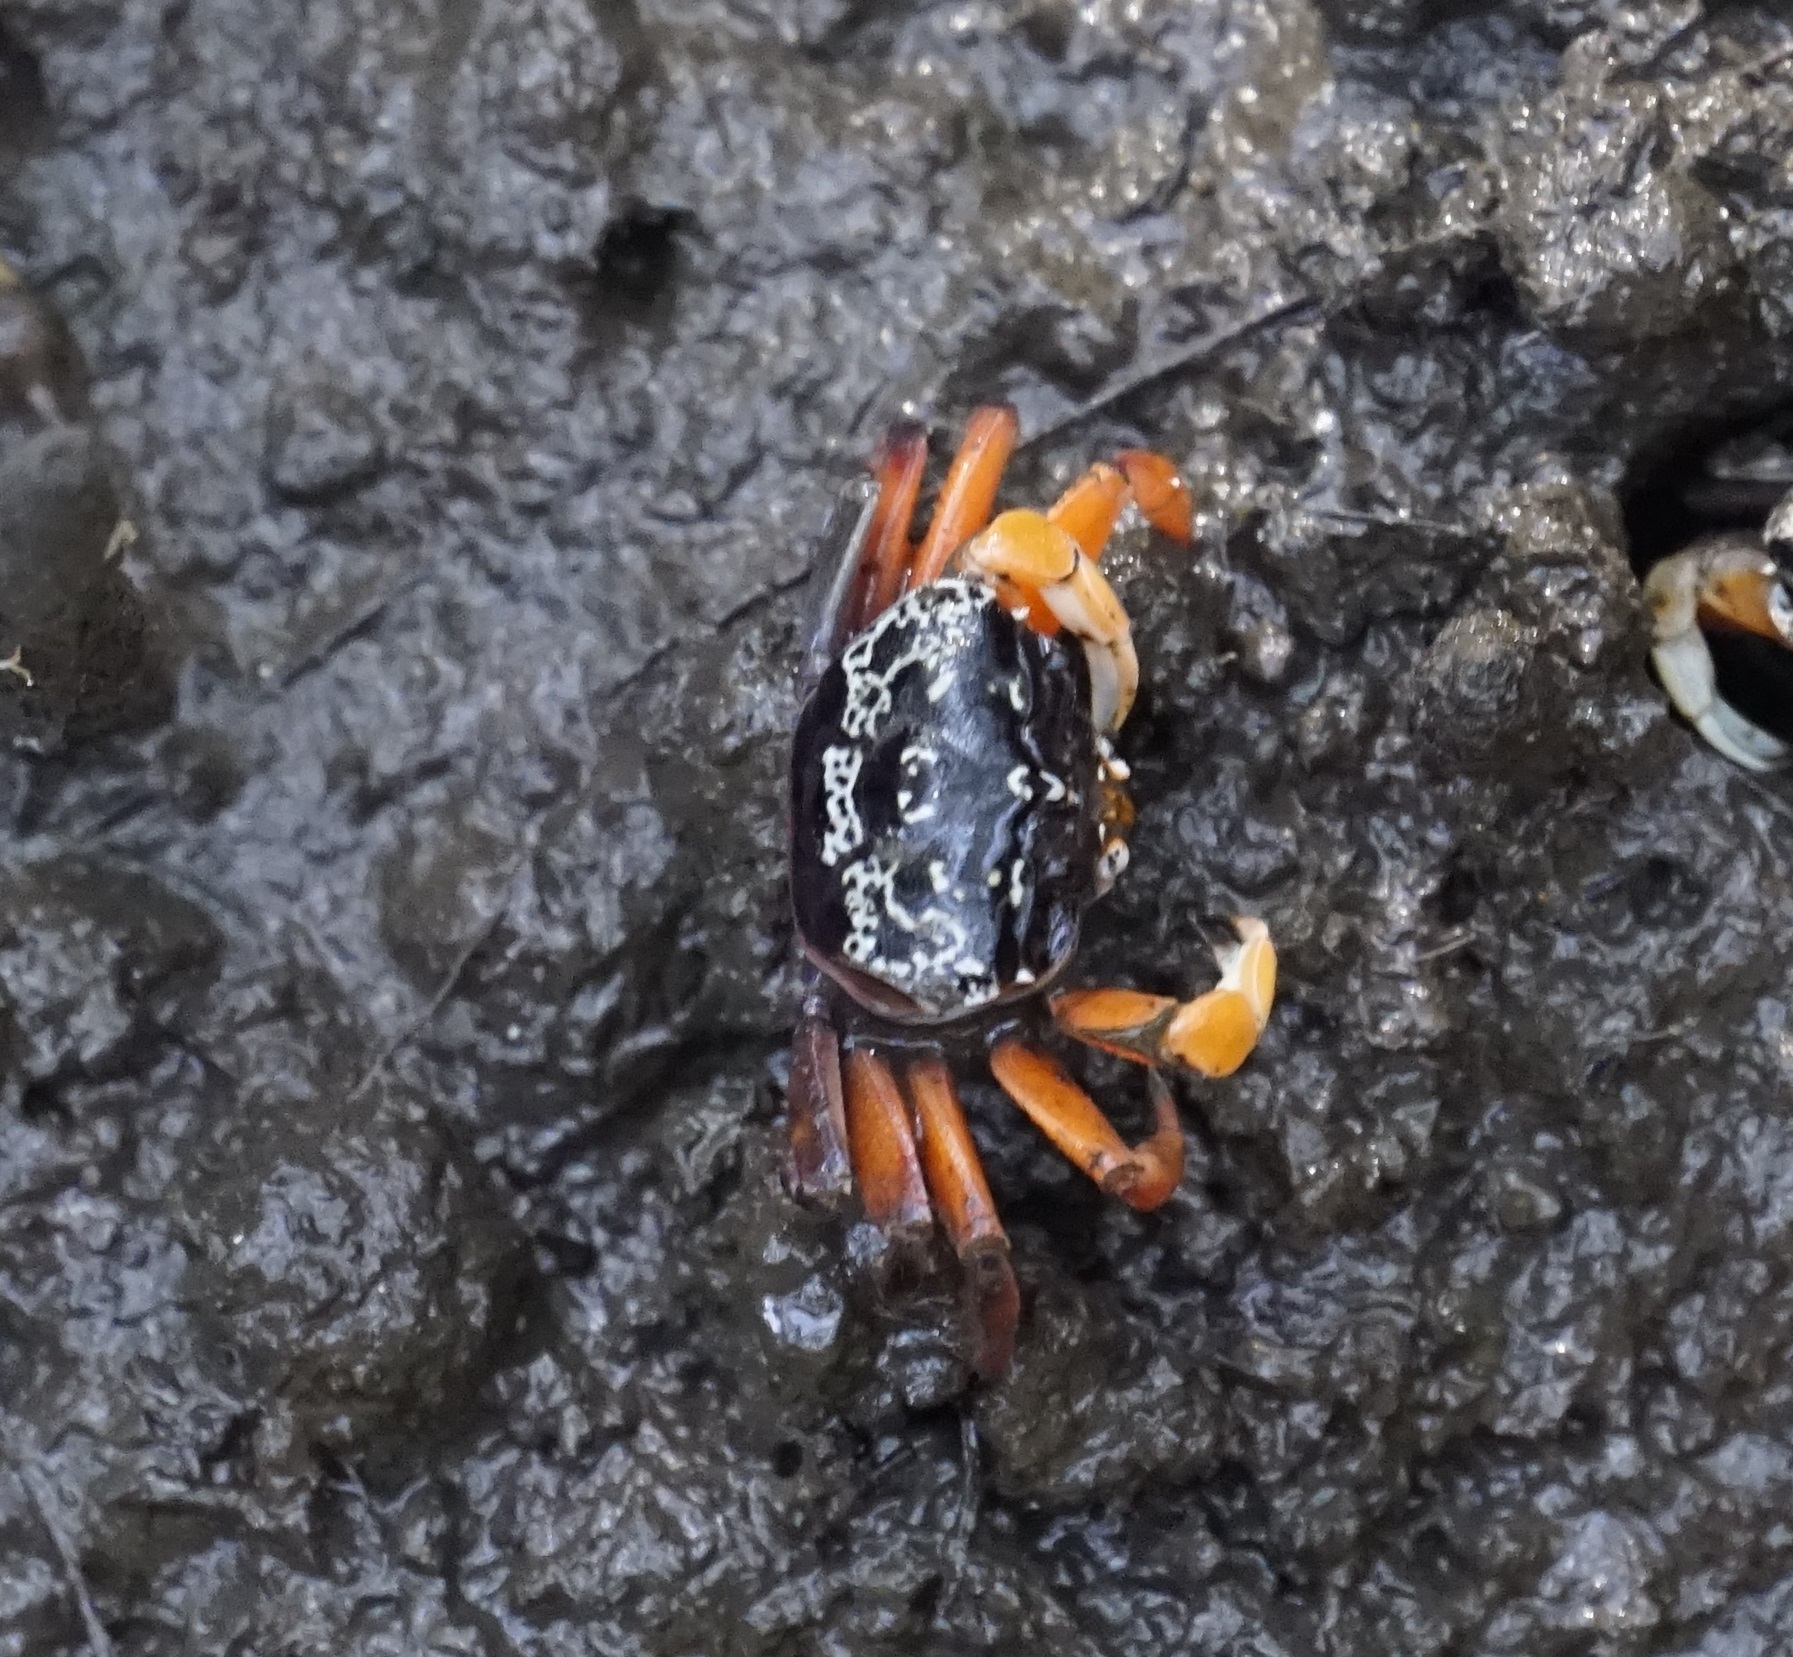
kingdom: Animalia
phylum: Arthropoda
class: Malacostraca
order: Decapoda
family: Heloeciidae
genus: Heloecius
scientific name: Heloecius cordiformis
